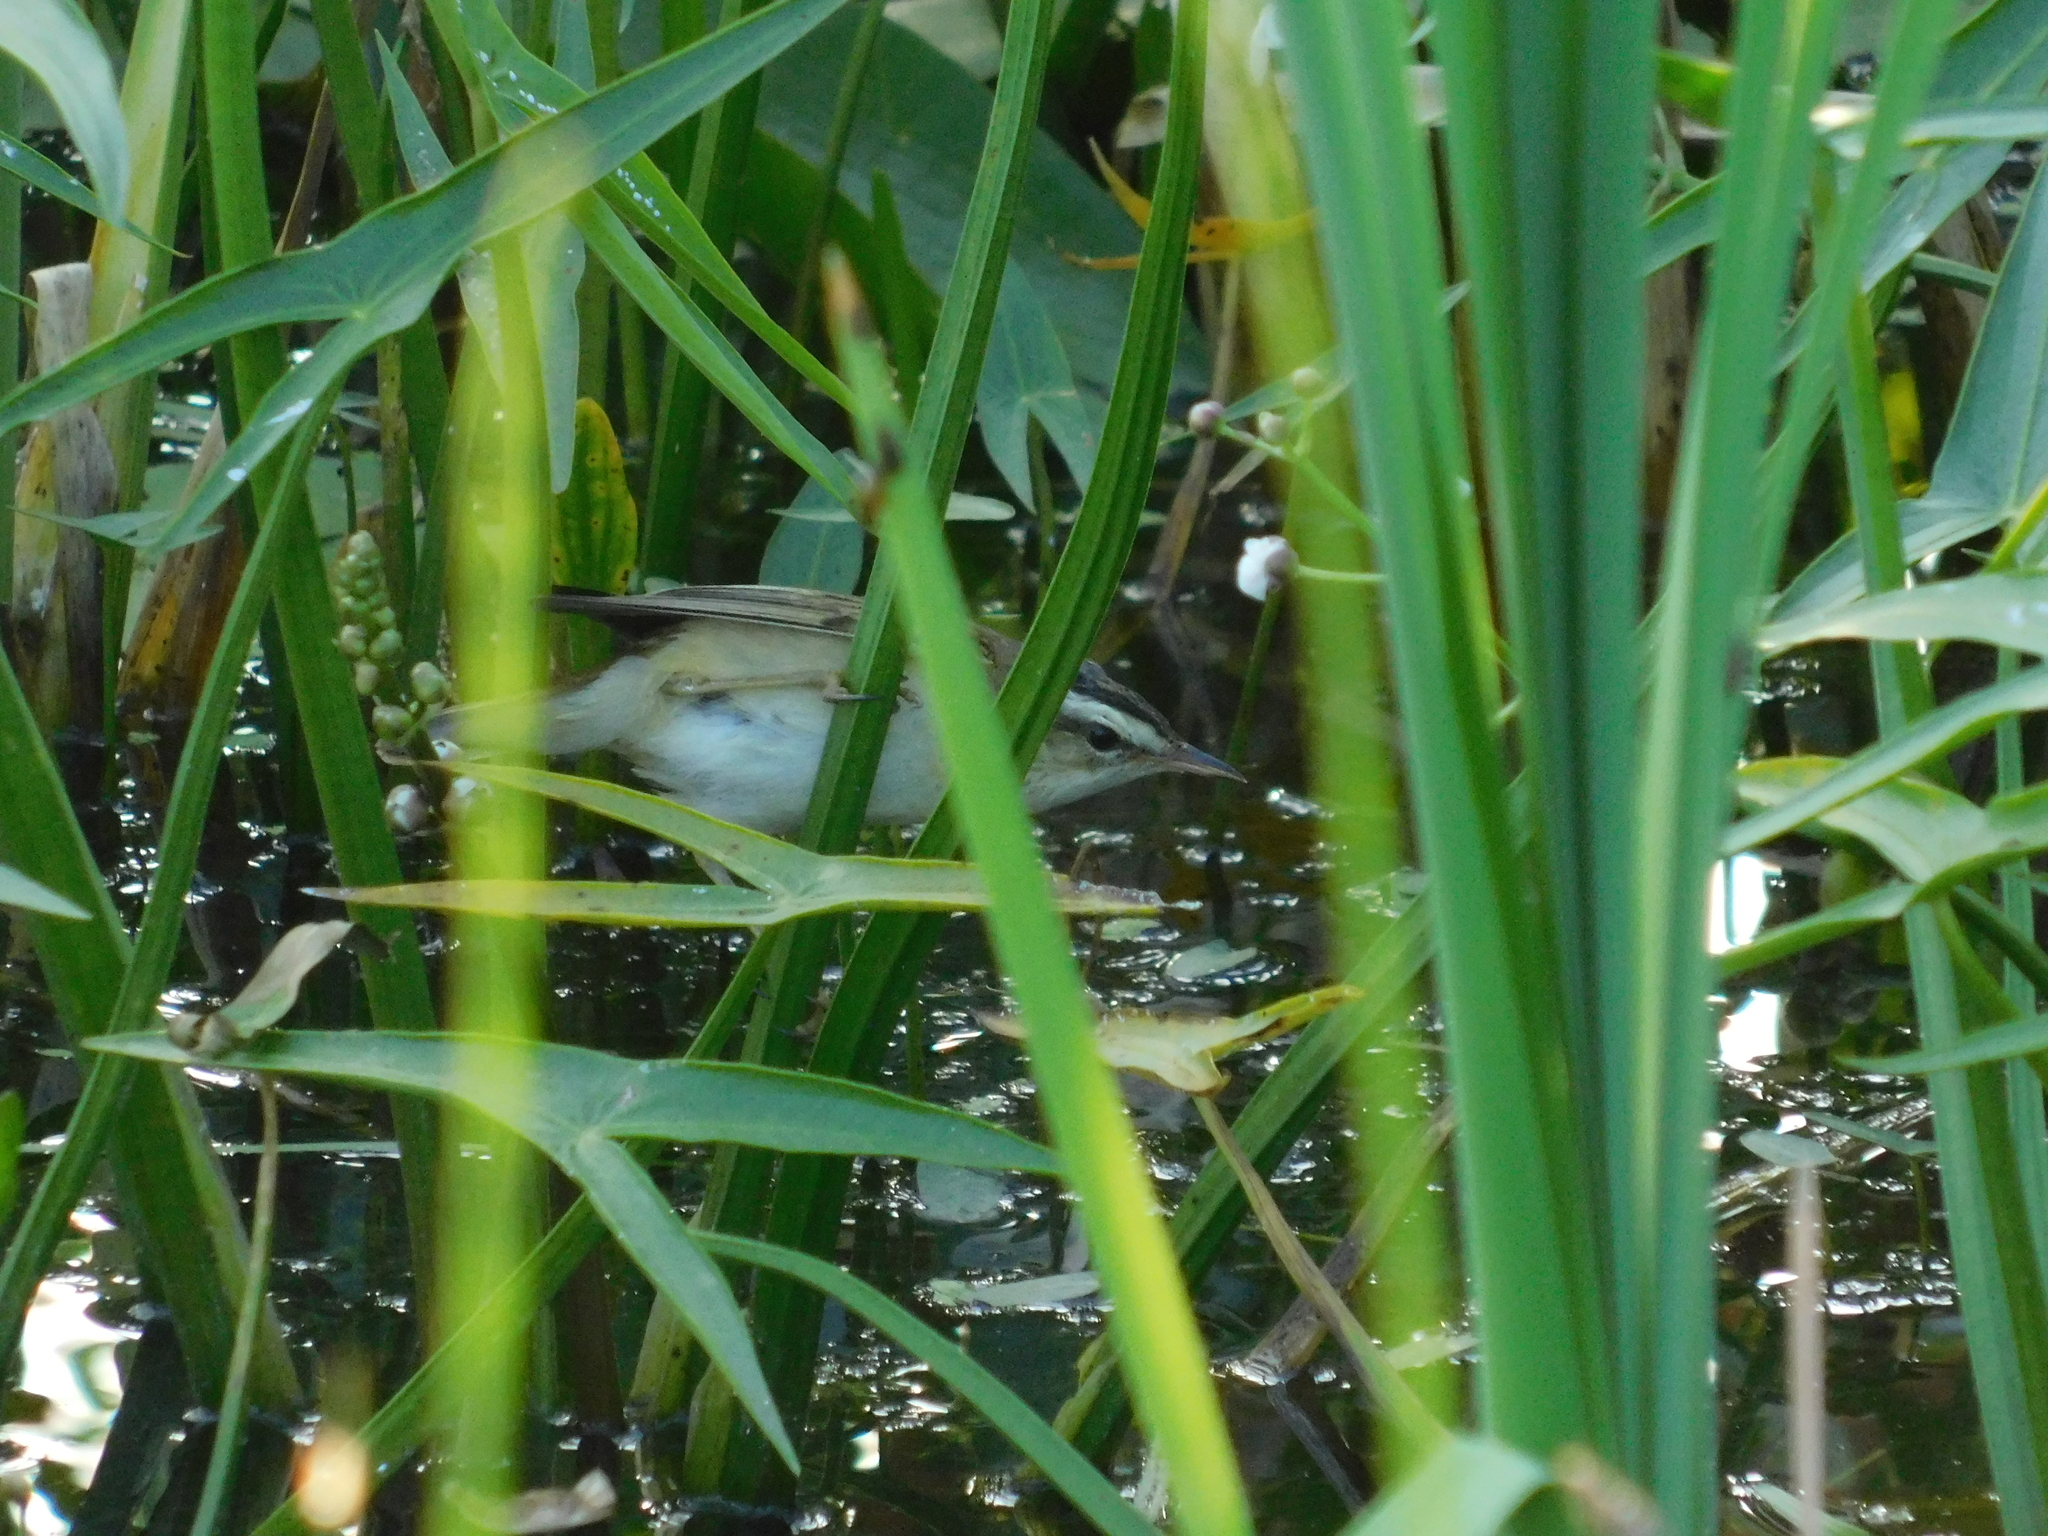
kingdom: Animalia
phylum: Chordata
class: Aves
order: Passeriformes
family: Acrocephalidae
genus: Acrocephalus
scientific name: Acrocephalus schoenobaenus
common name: Sedge warbler
